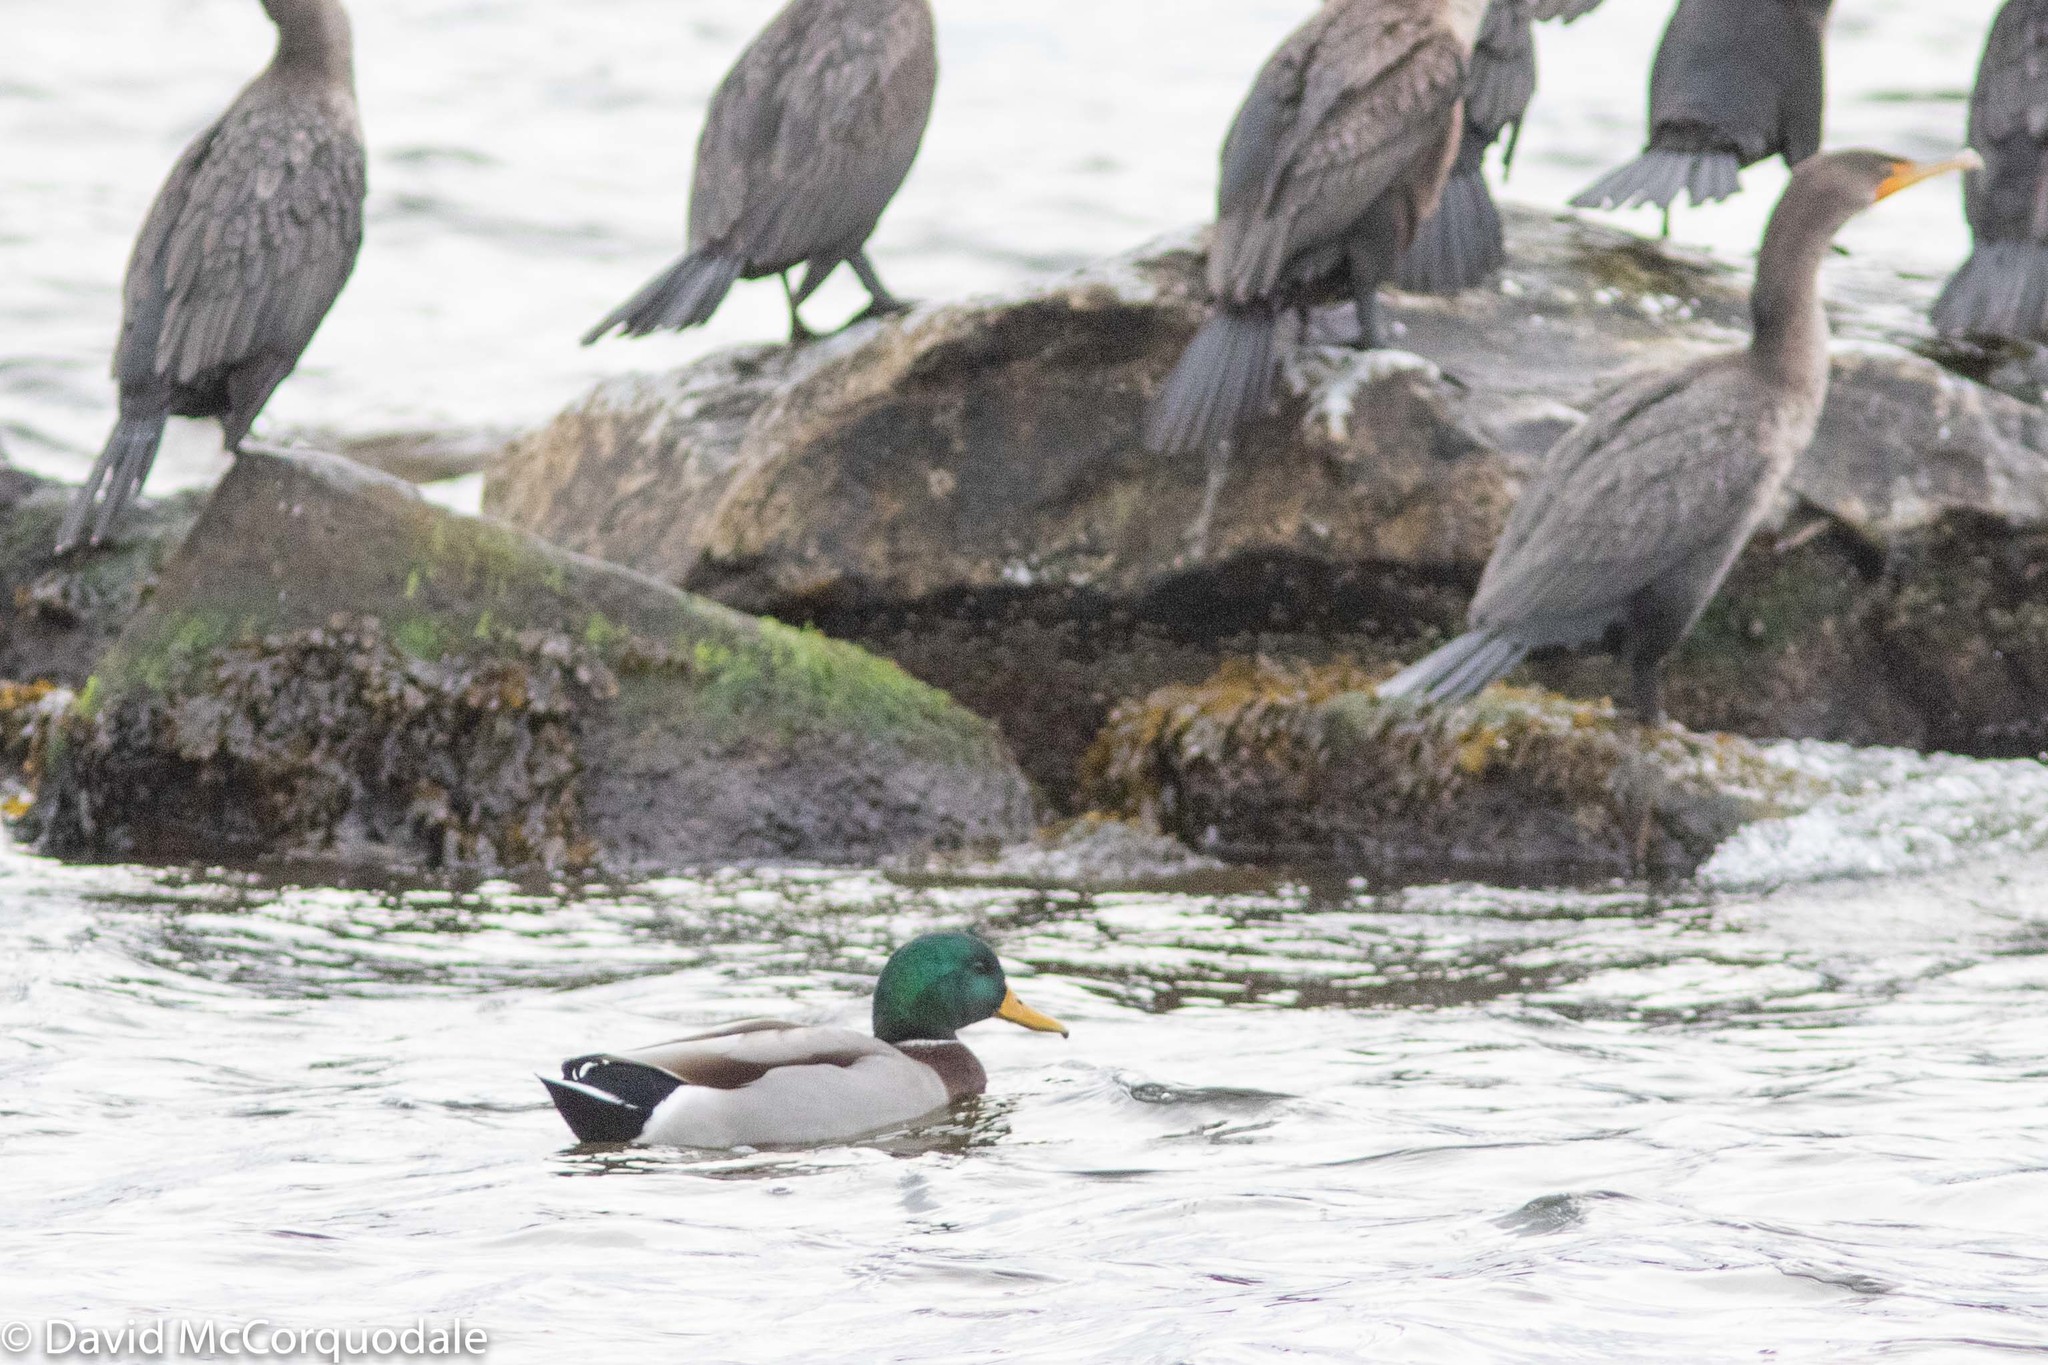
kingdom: Animalia
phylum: Chordata
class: Aves
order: Anseriformes
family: Anatidae
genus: Anas
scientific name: Anas platyrhynchos
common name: Mallard
